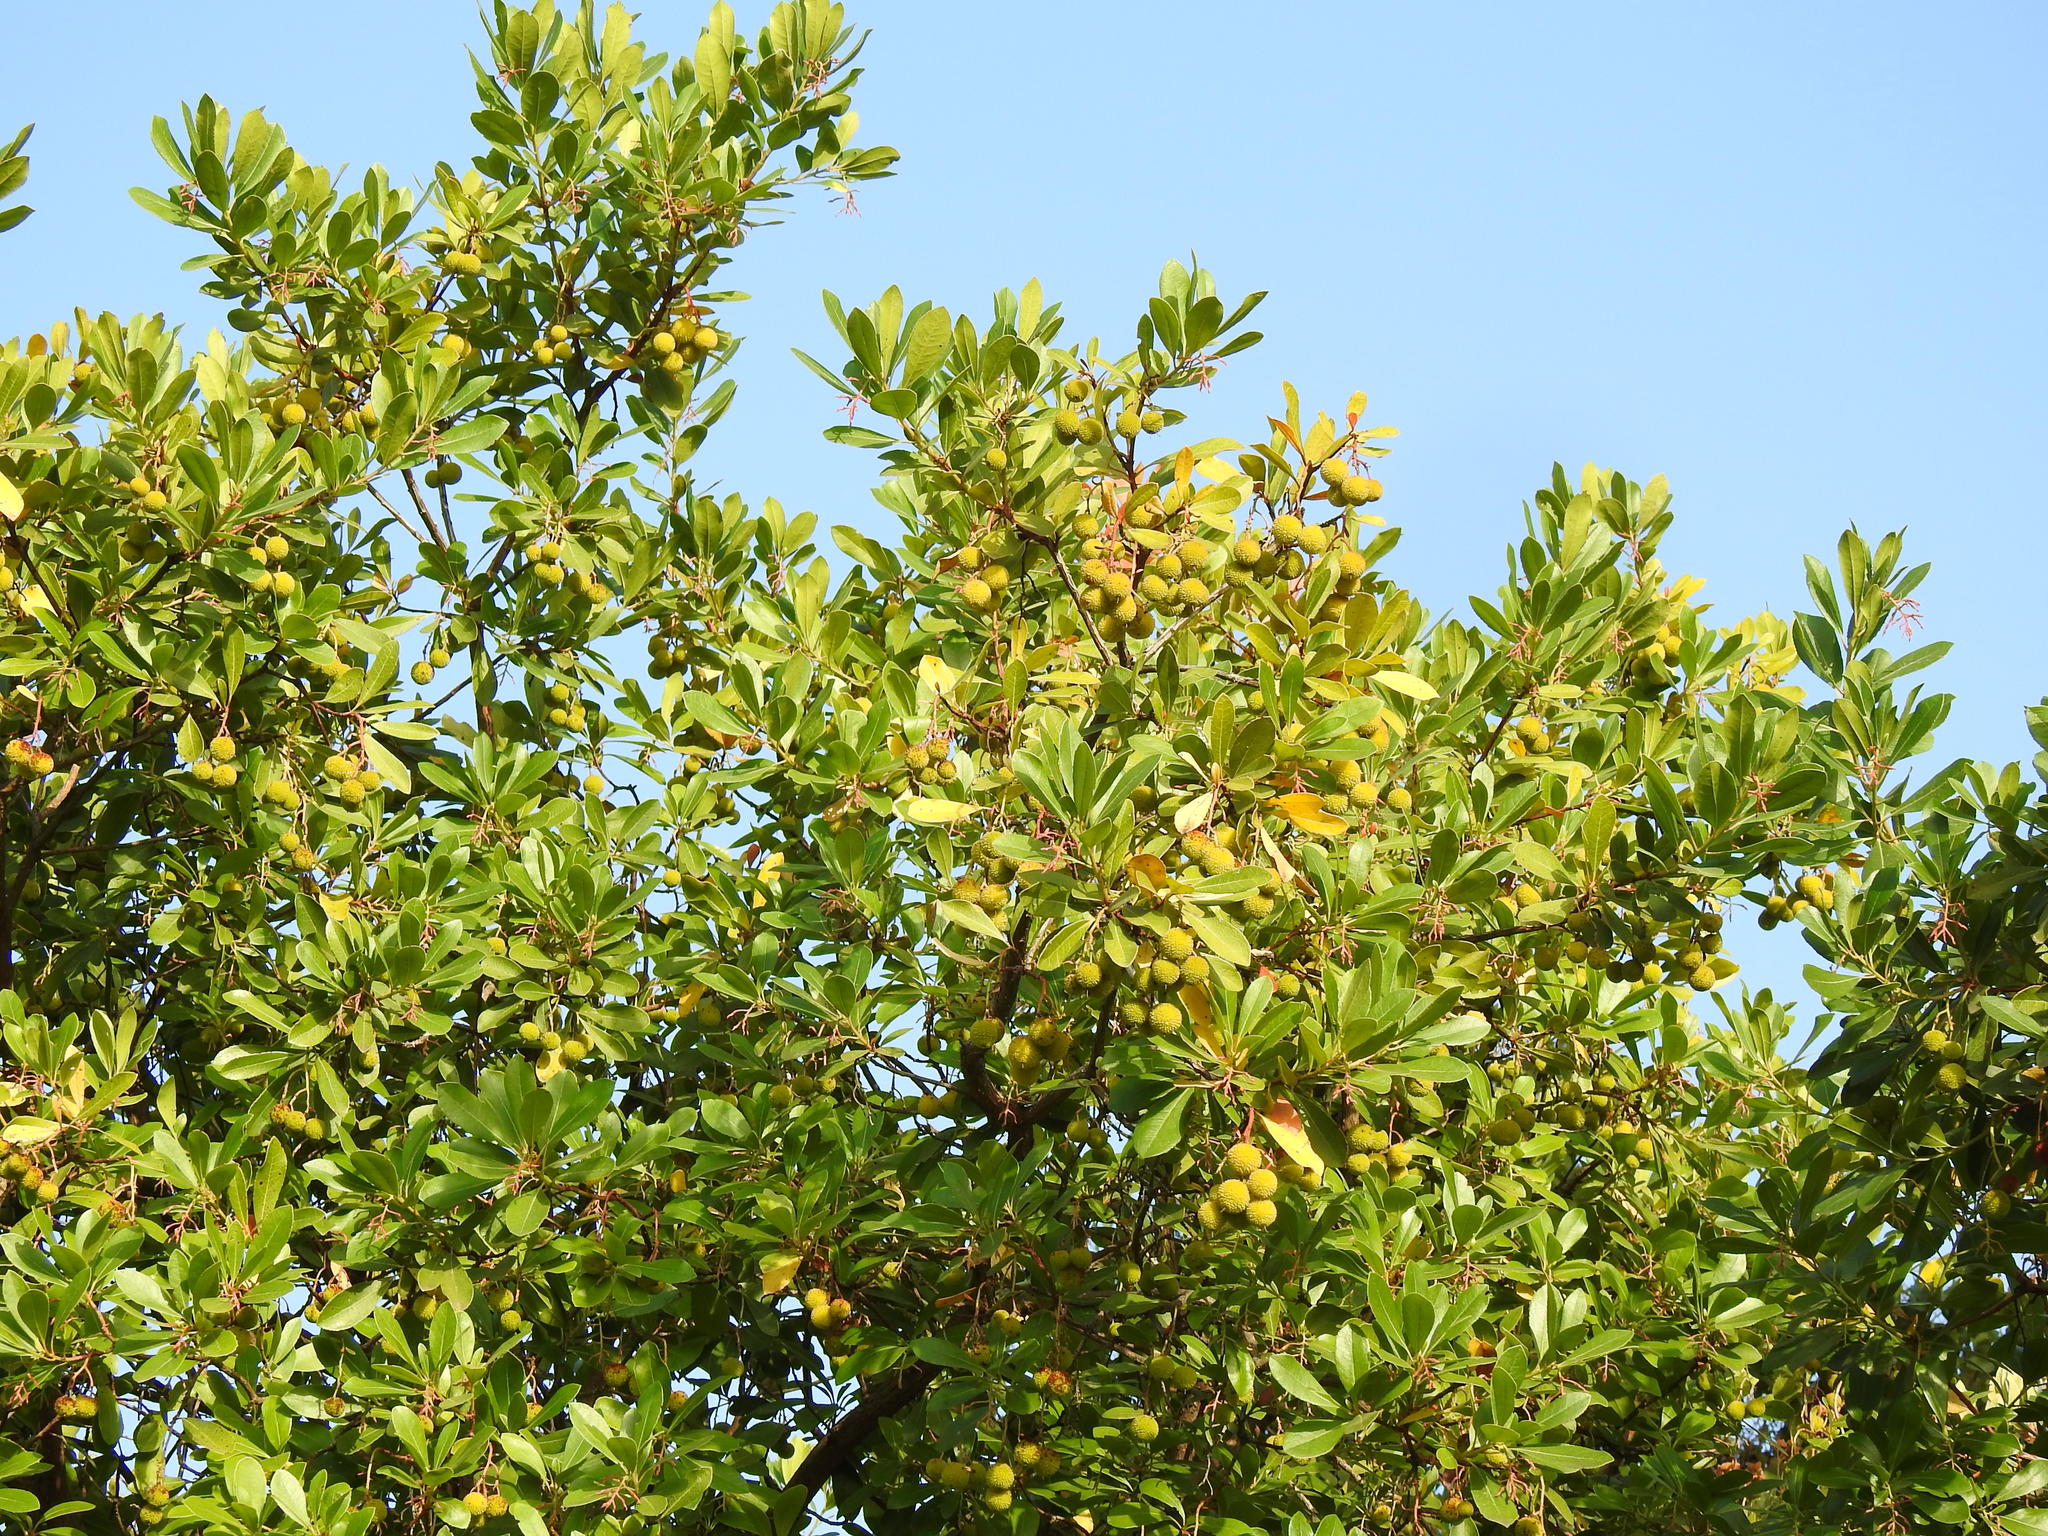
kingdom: Plantae
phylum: Tracheophyta
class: Magnoliopsida
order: Ericales
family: Ericaceae
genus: Arbutus
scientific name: Arbutus unedo
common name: Strawberry-tree
